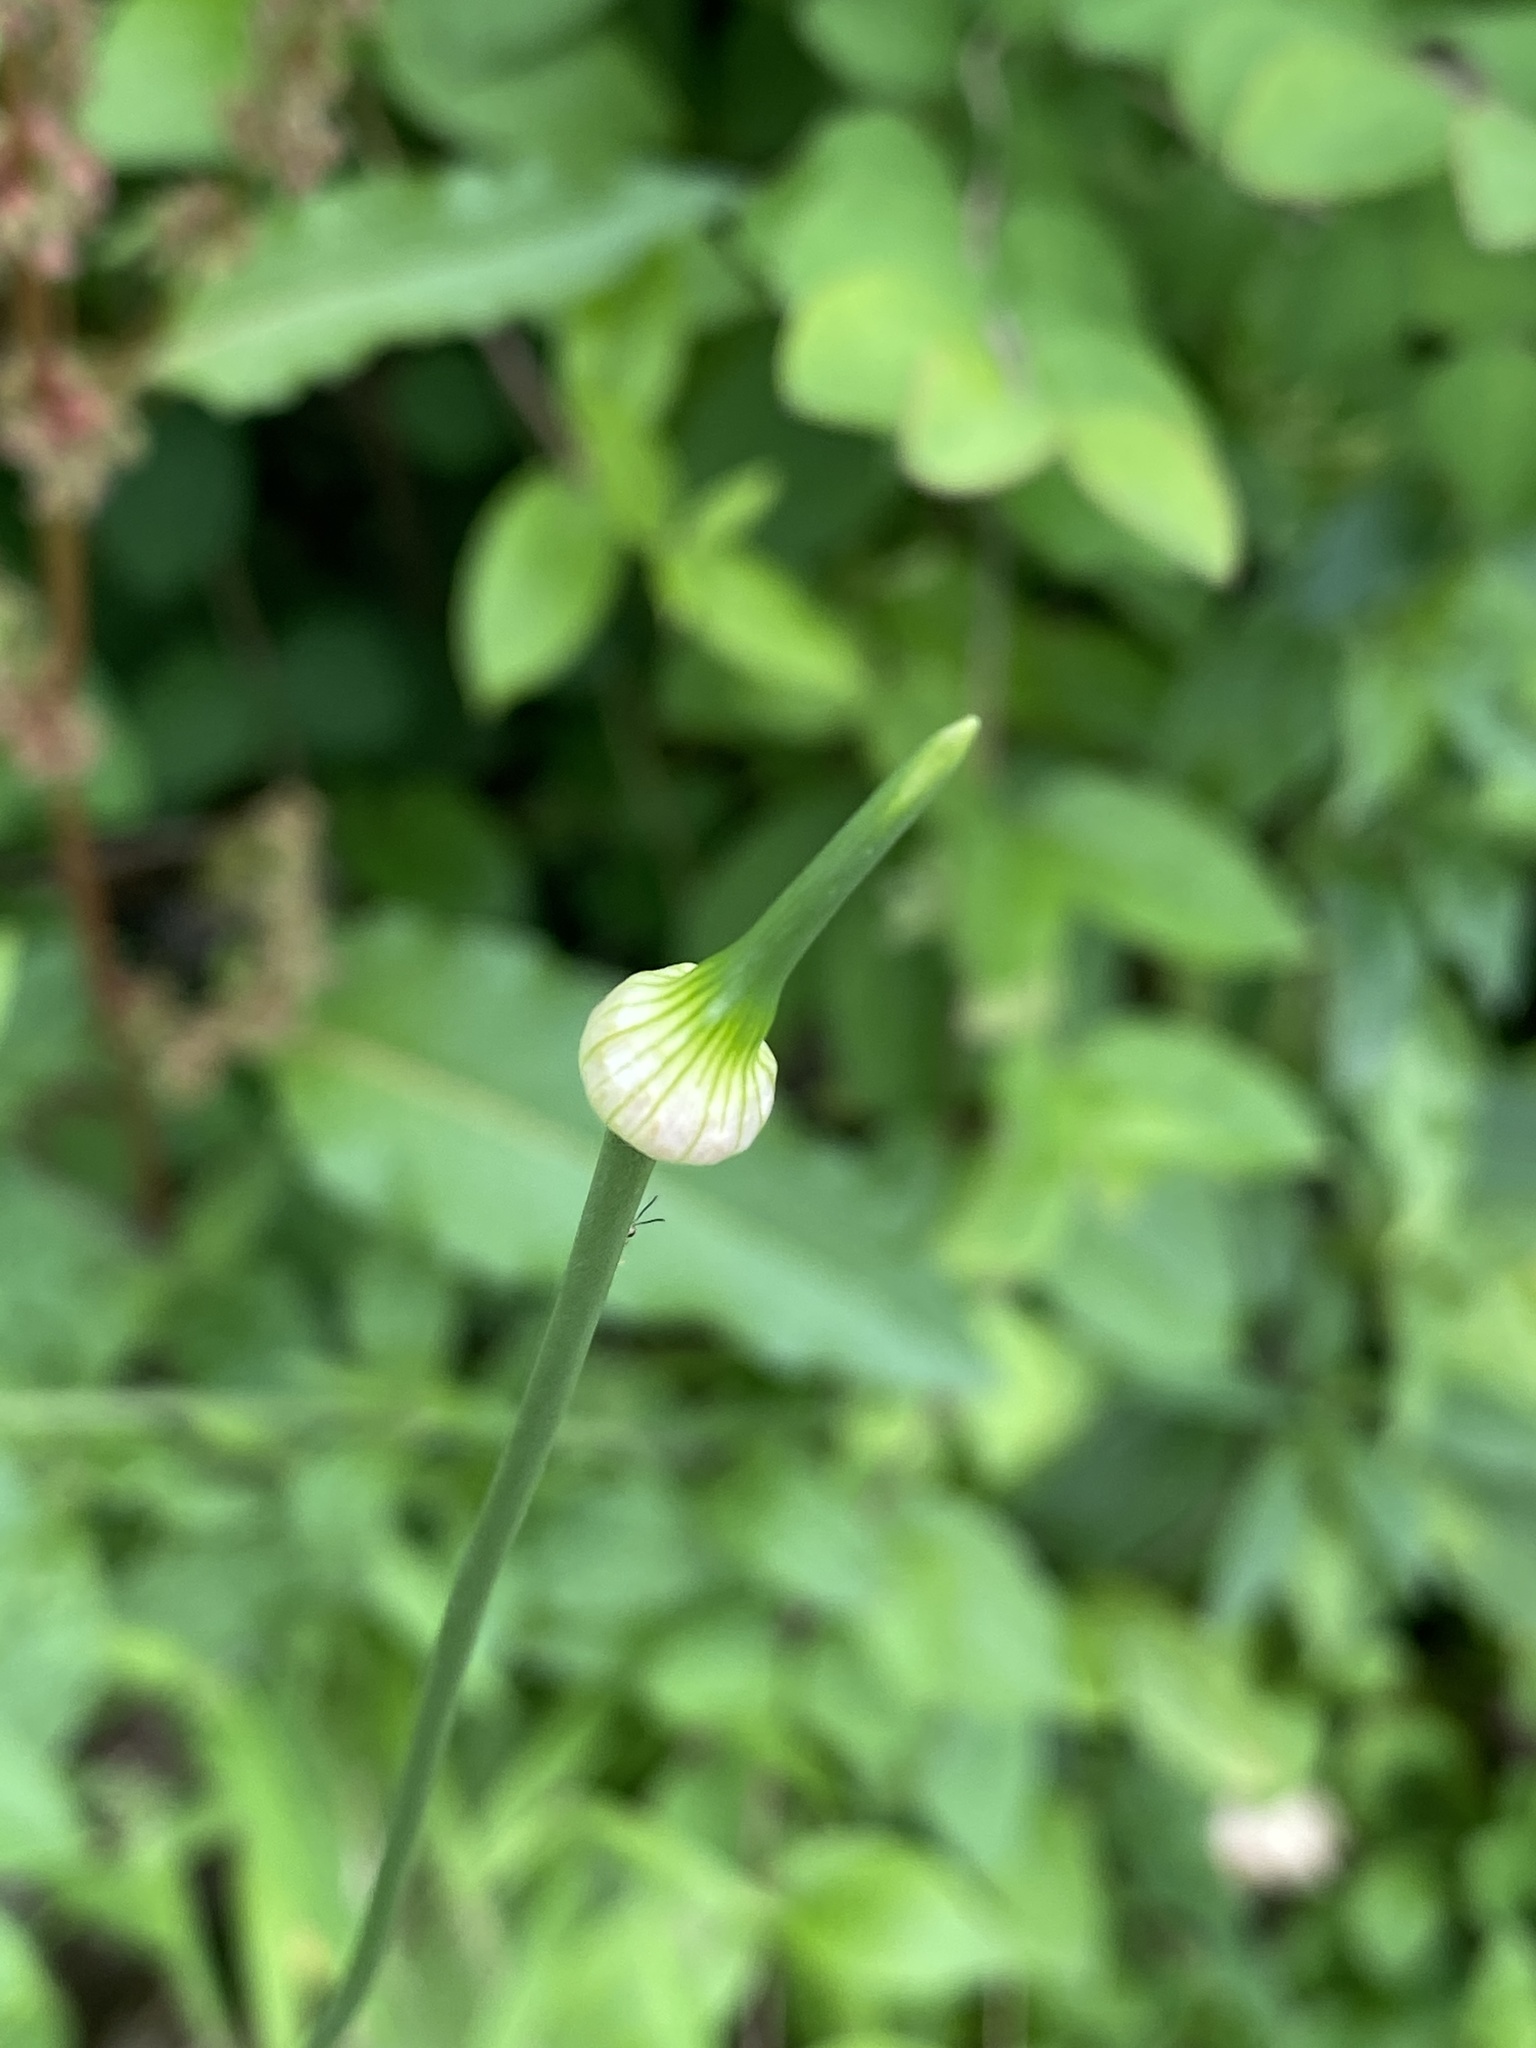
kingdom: Plantae
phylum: Tracheophyta
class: Liliopsida
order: Asparagales
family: Amaryllidaceae
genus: Allium
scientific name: Allium vineale
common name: Crow garlic
